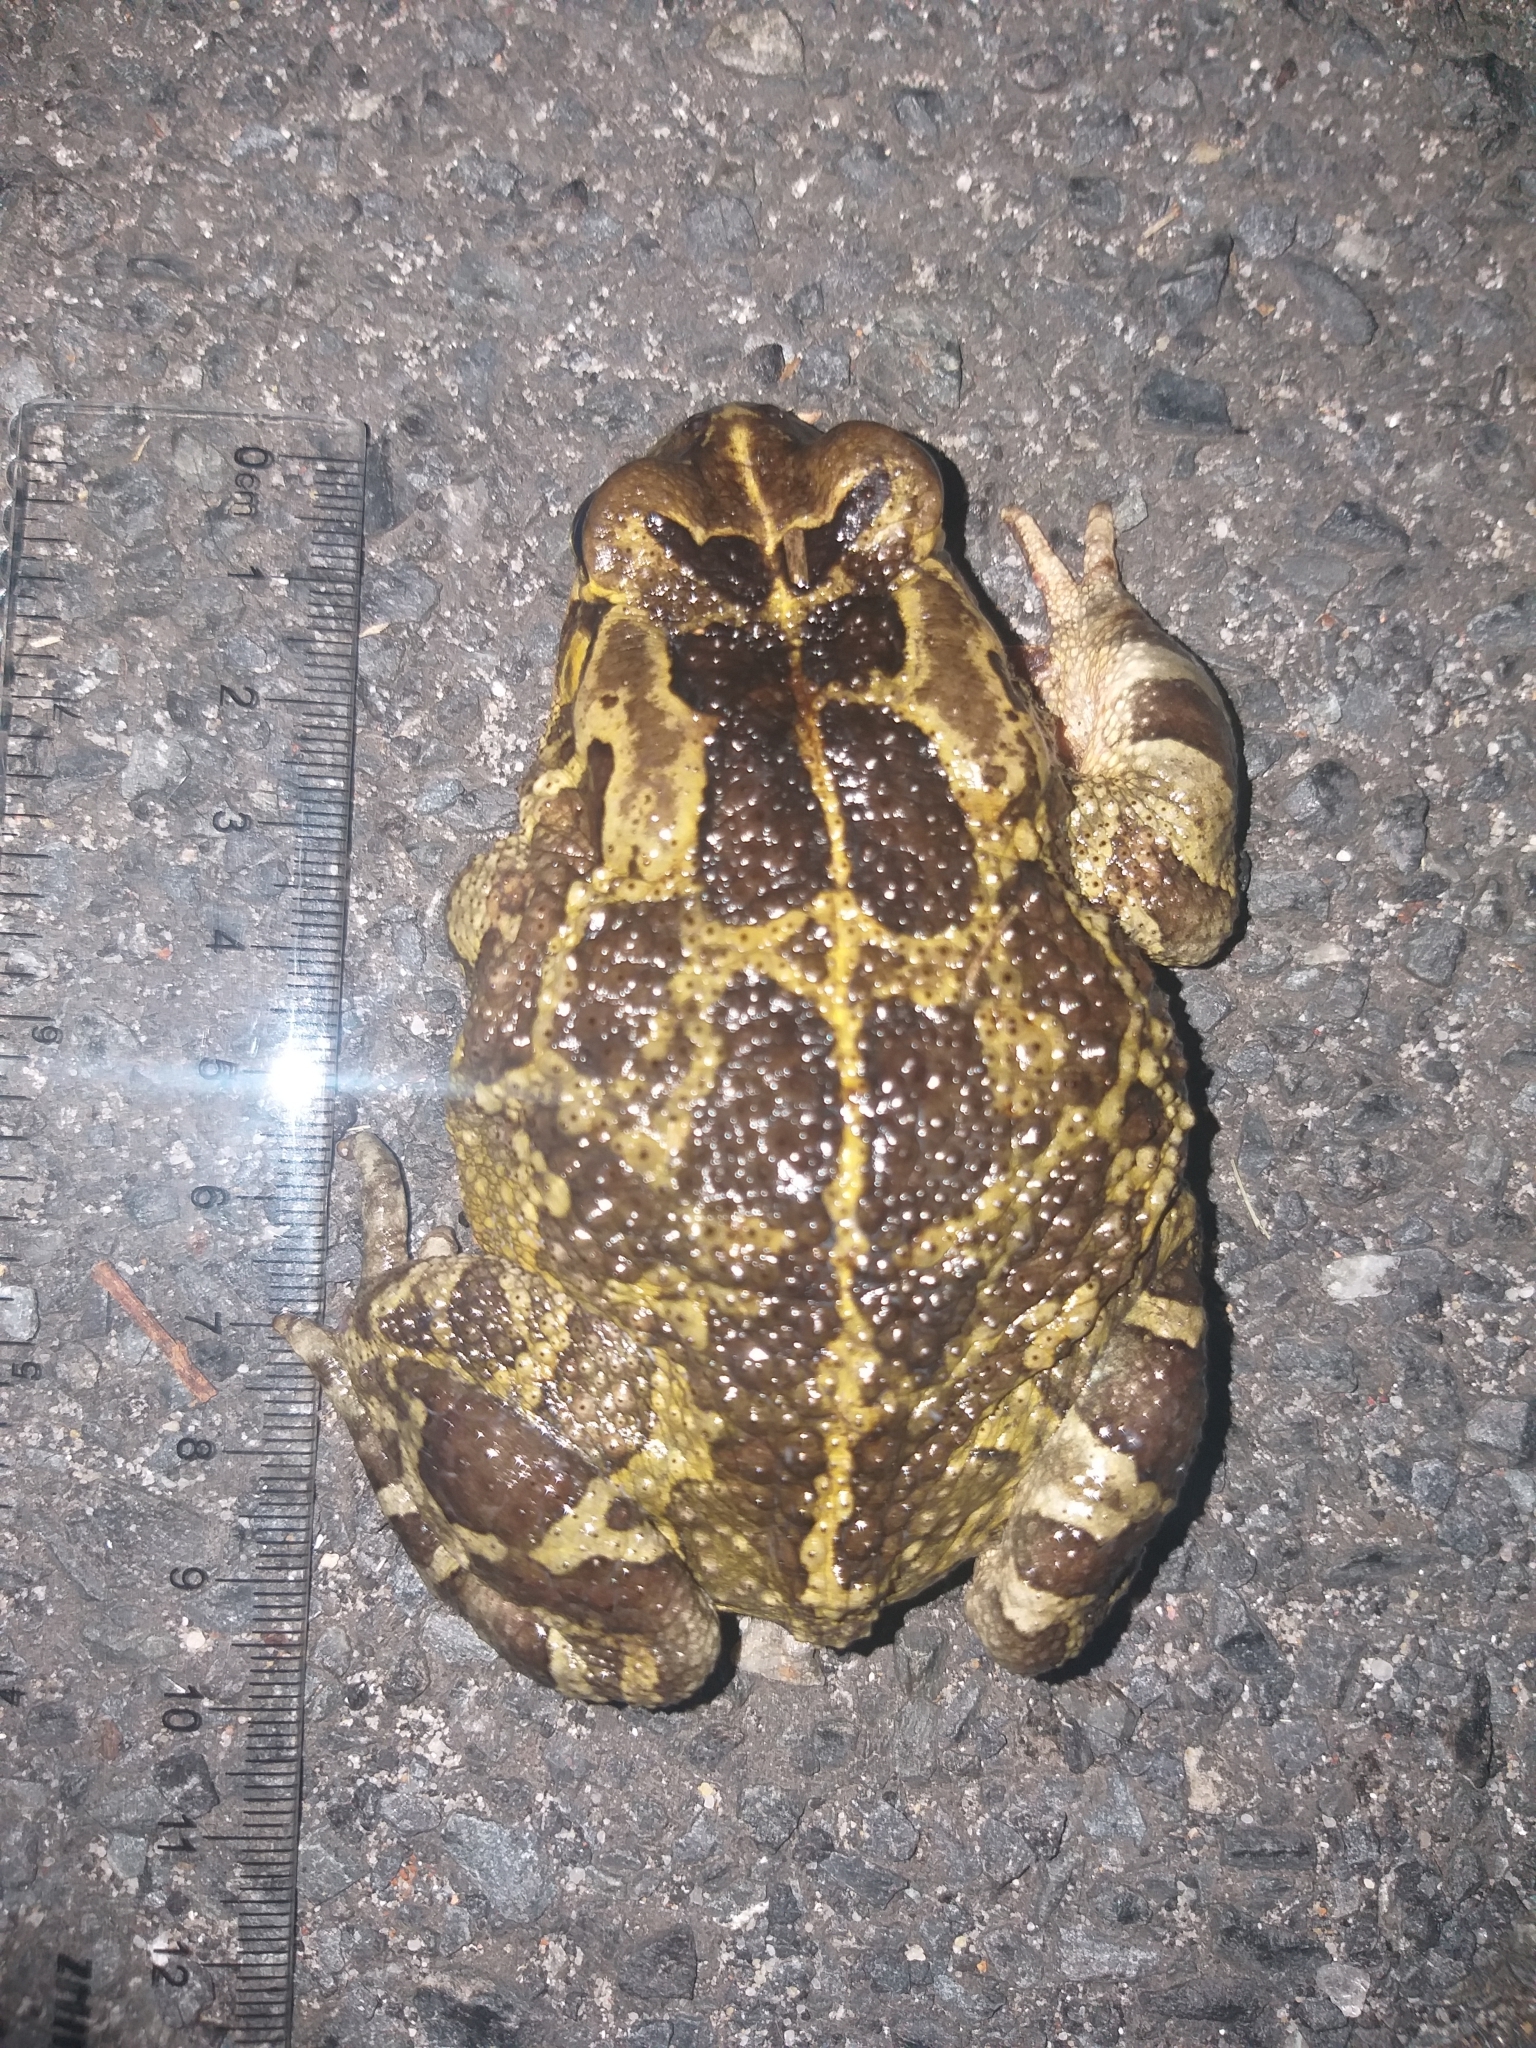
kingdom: Animalia
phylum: Chordata
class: Amphibia
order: Anura
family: Bufonidae
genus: Sclerophrys
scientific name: Sclerophrys pantherina
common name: Panther toad
